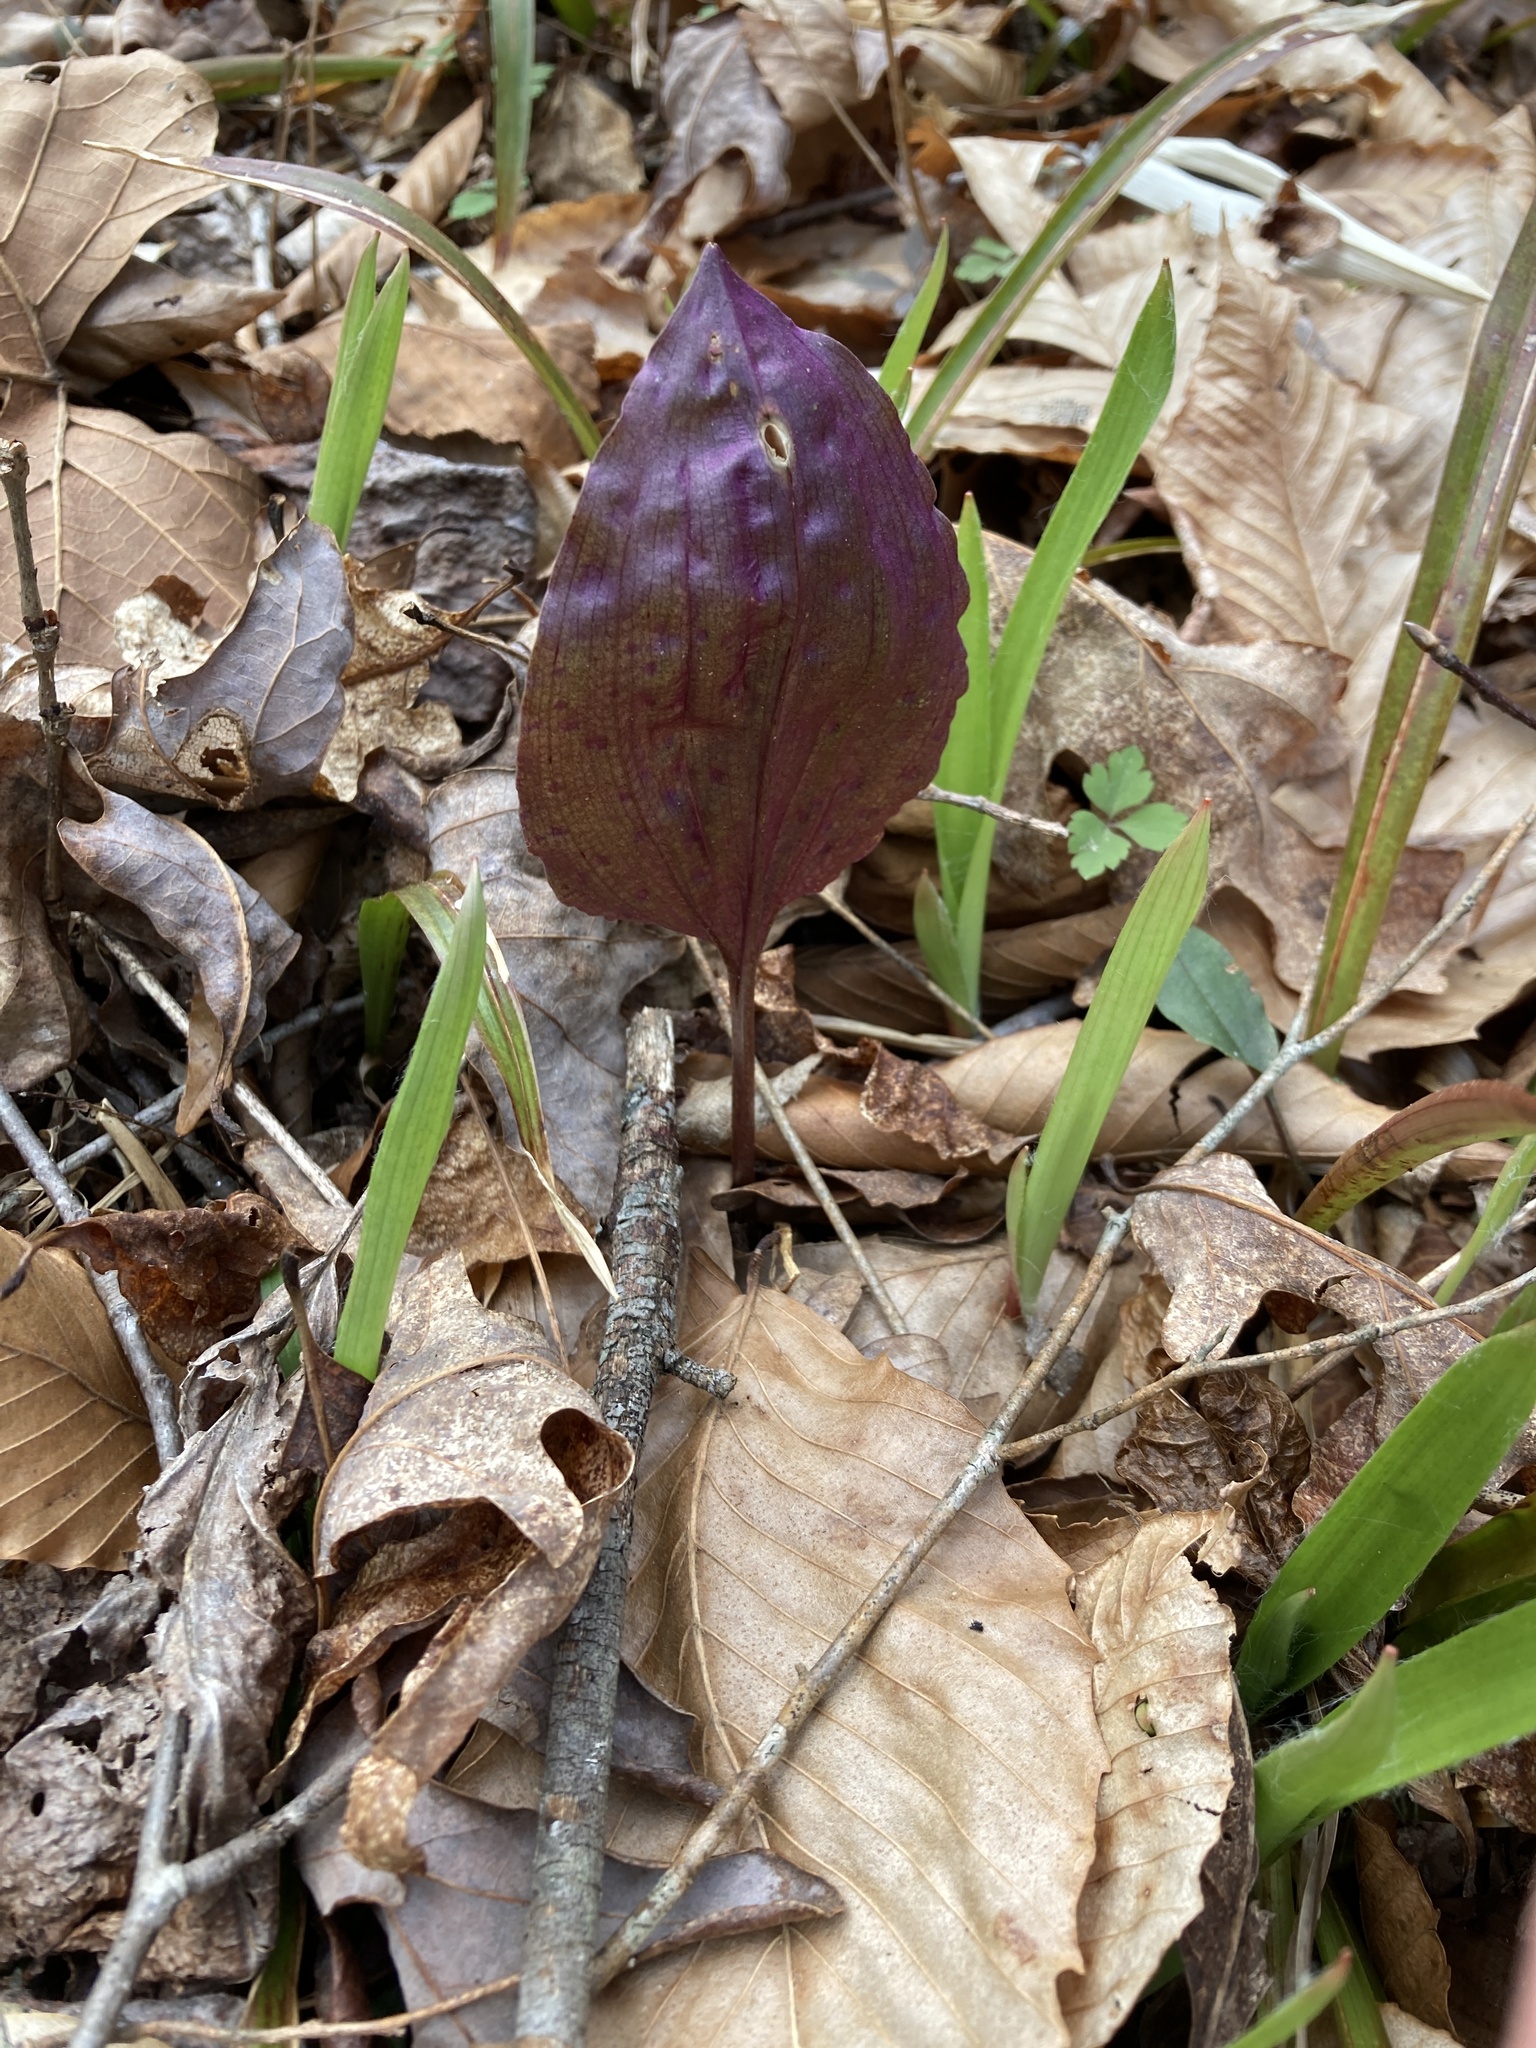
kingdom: Plantae
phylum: Tracheophyta
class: Liliopsida
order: Asparagales
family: Orchidaceae
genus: Tipularia
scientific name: Tipularia discolor
